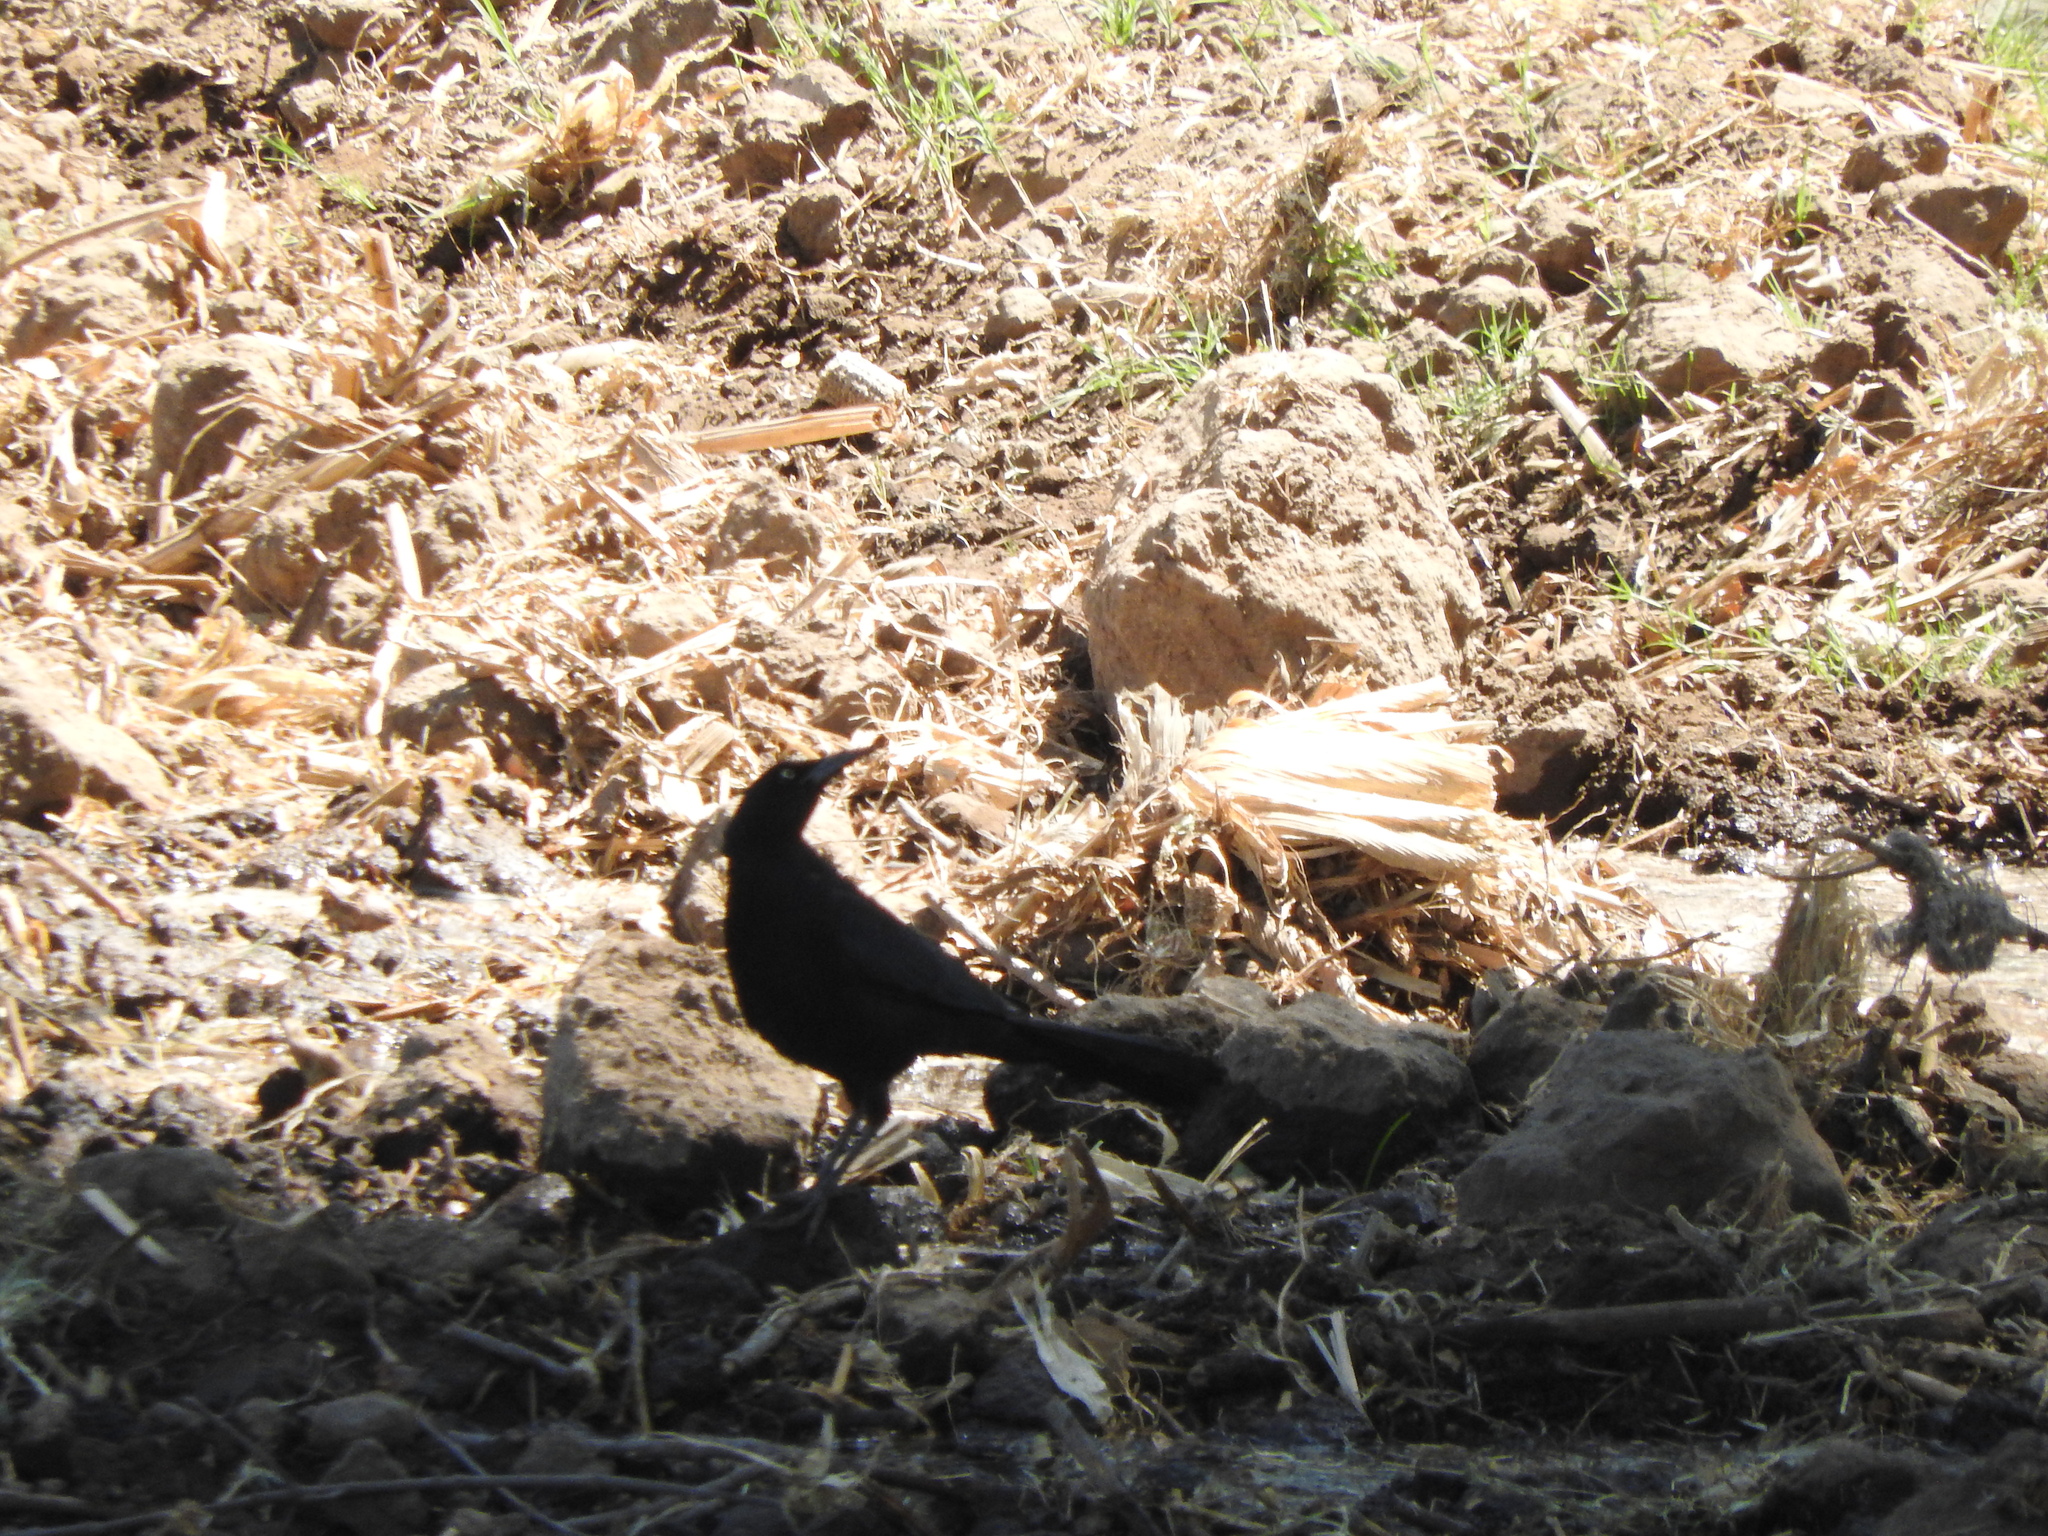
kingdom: Animalia
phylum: Chordata
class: Aves
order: Passeriformes
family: Icteridae
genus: Quiscalus
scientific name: Quiscalus mexicanus
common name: Great-tailed grackle
